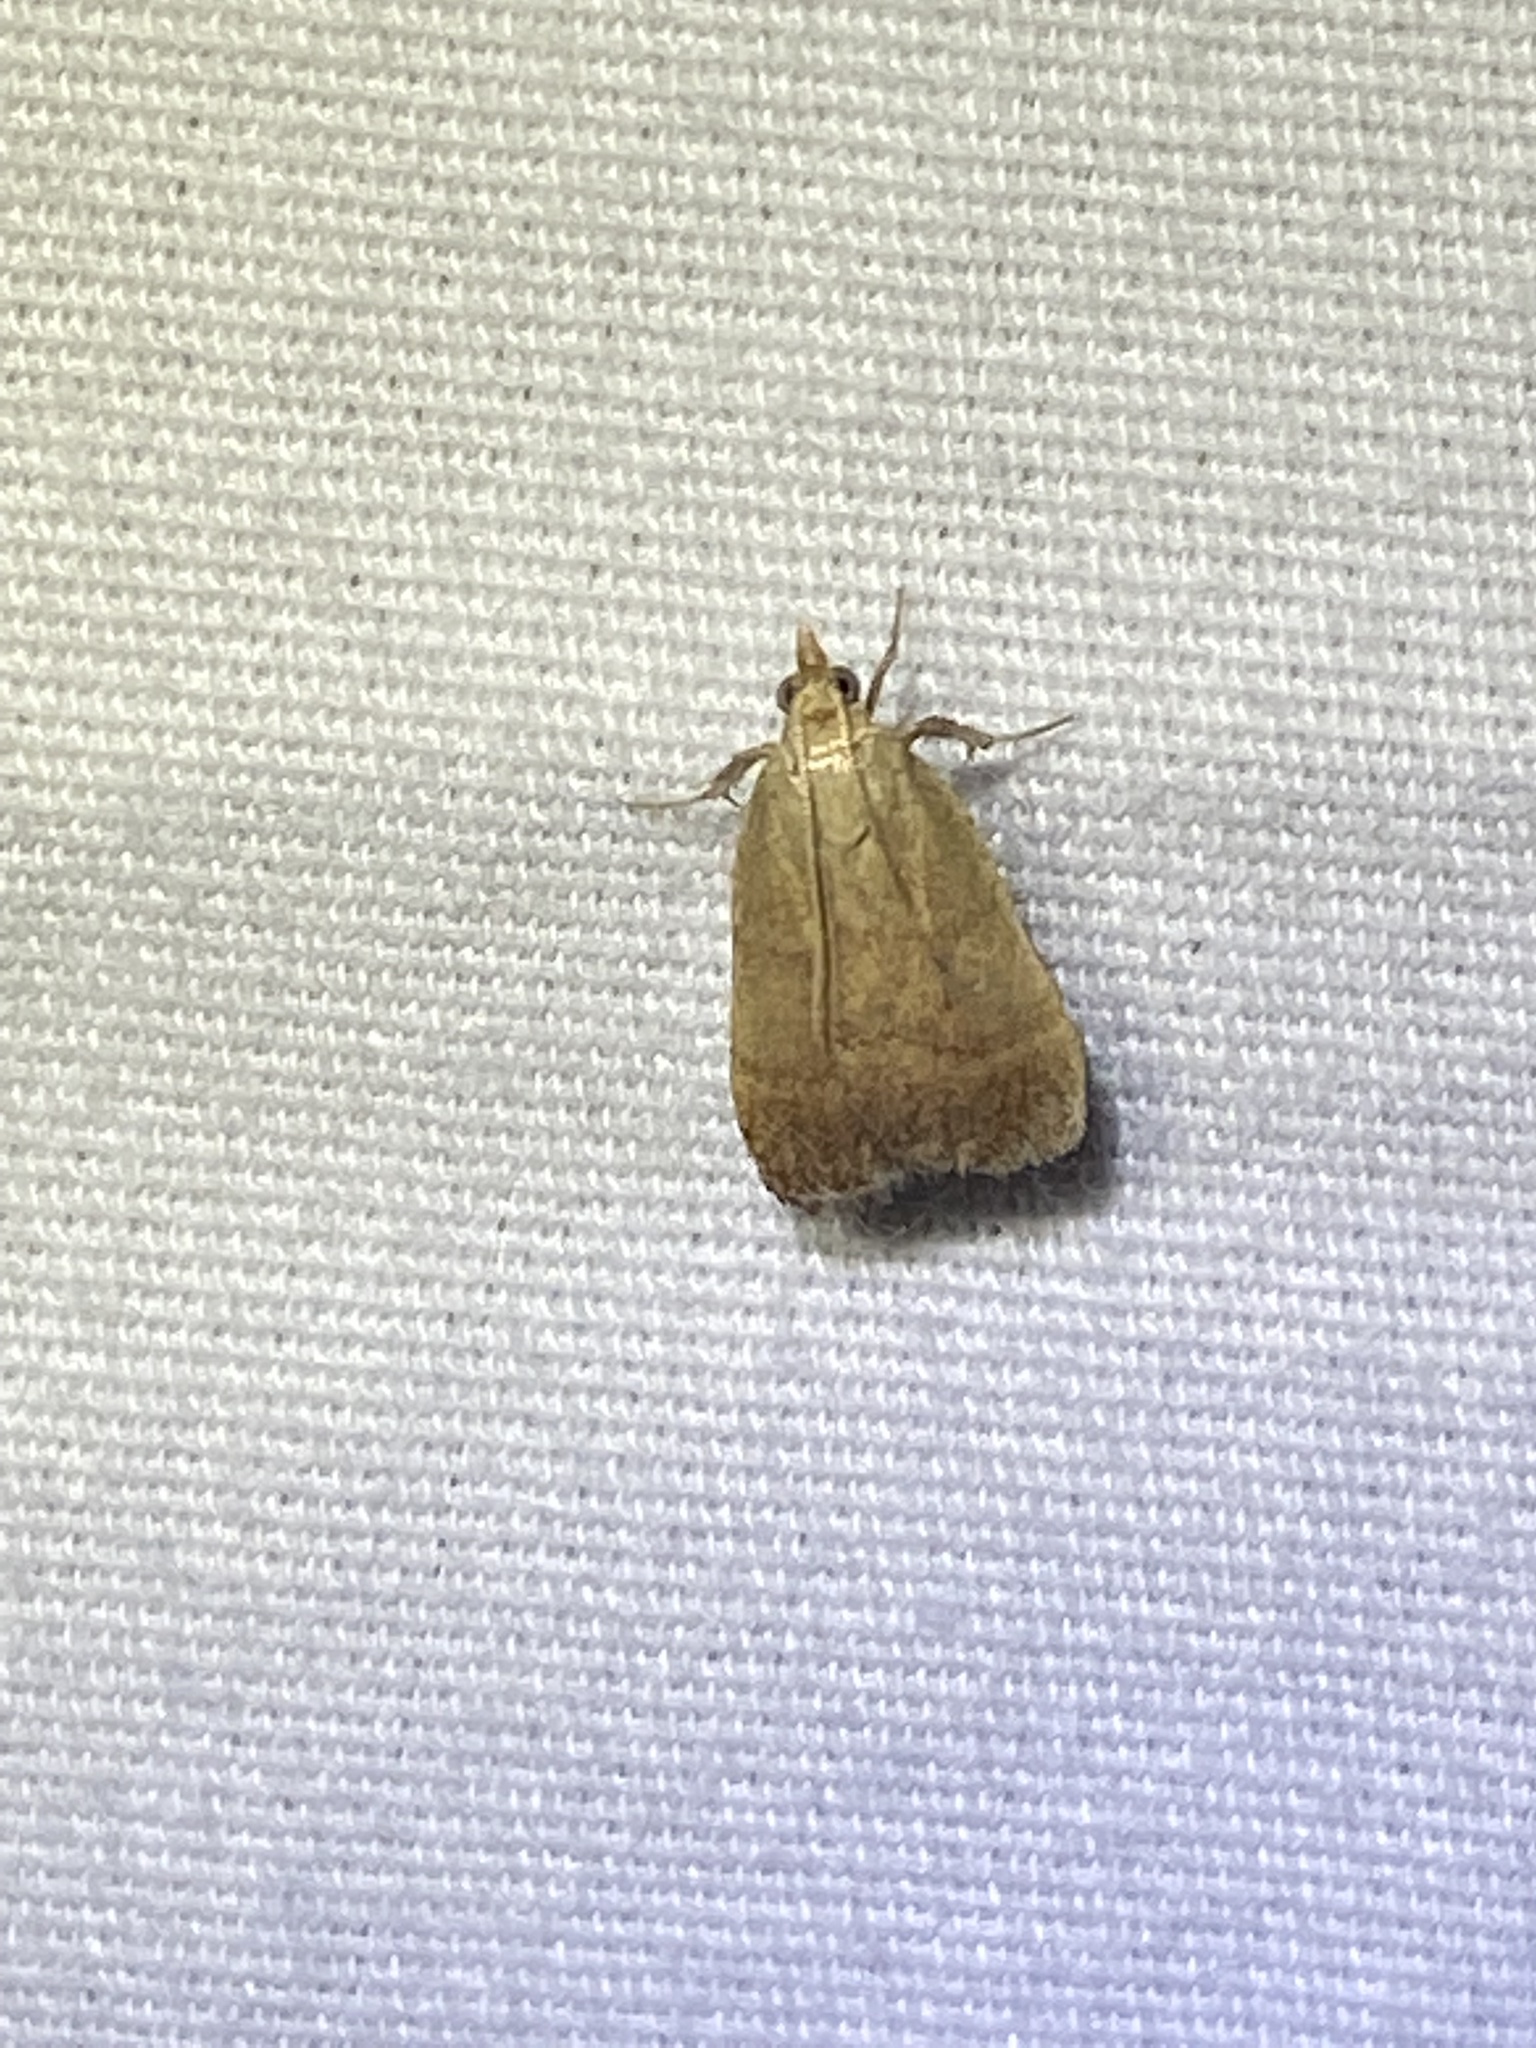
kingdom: Animalia
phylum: Arthropoda
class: Insecta
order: Lepidoptera
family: Pyralidae
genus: Condylolomia
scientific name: Condylolomia participialis
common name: Drab condylolomia moth
